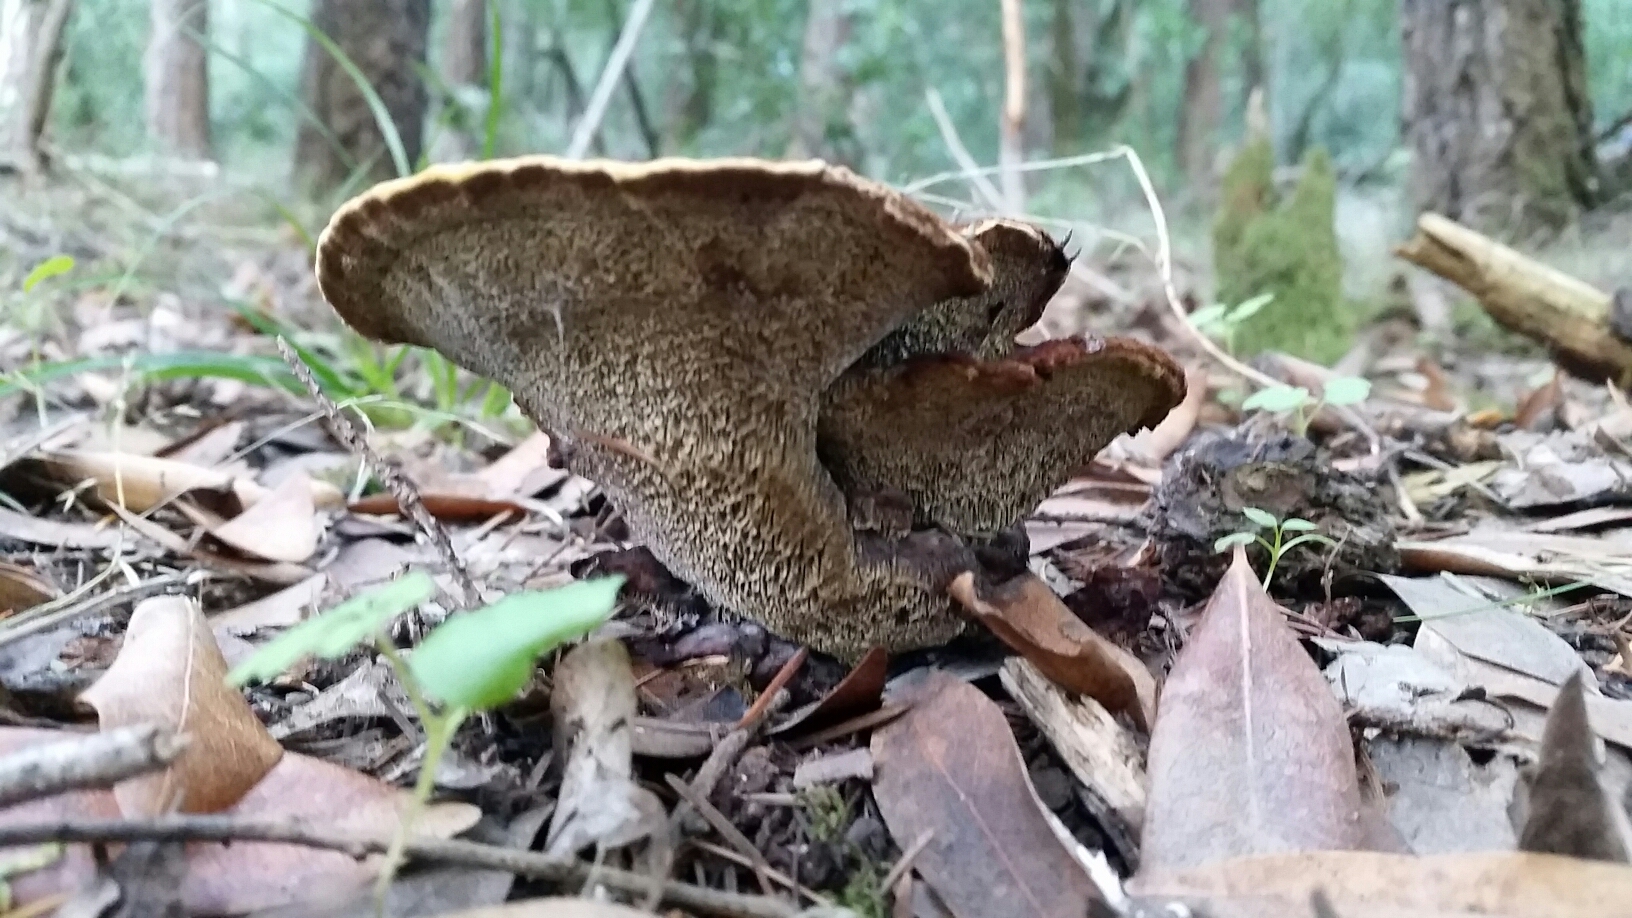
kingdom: Fungi
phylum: Basidiomycota
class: Agaricomycetes
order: Polyporales
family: Laetiporaceae
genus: Phaeolus
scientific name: Phaeolus schweinitzii
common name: Dyer's mazegill
